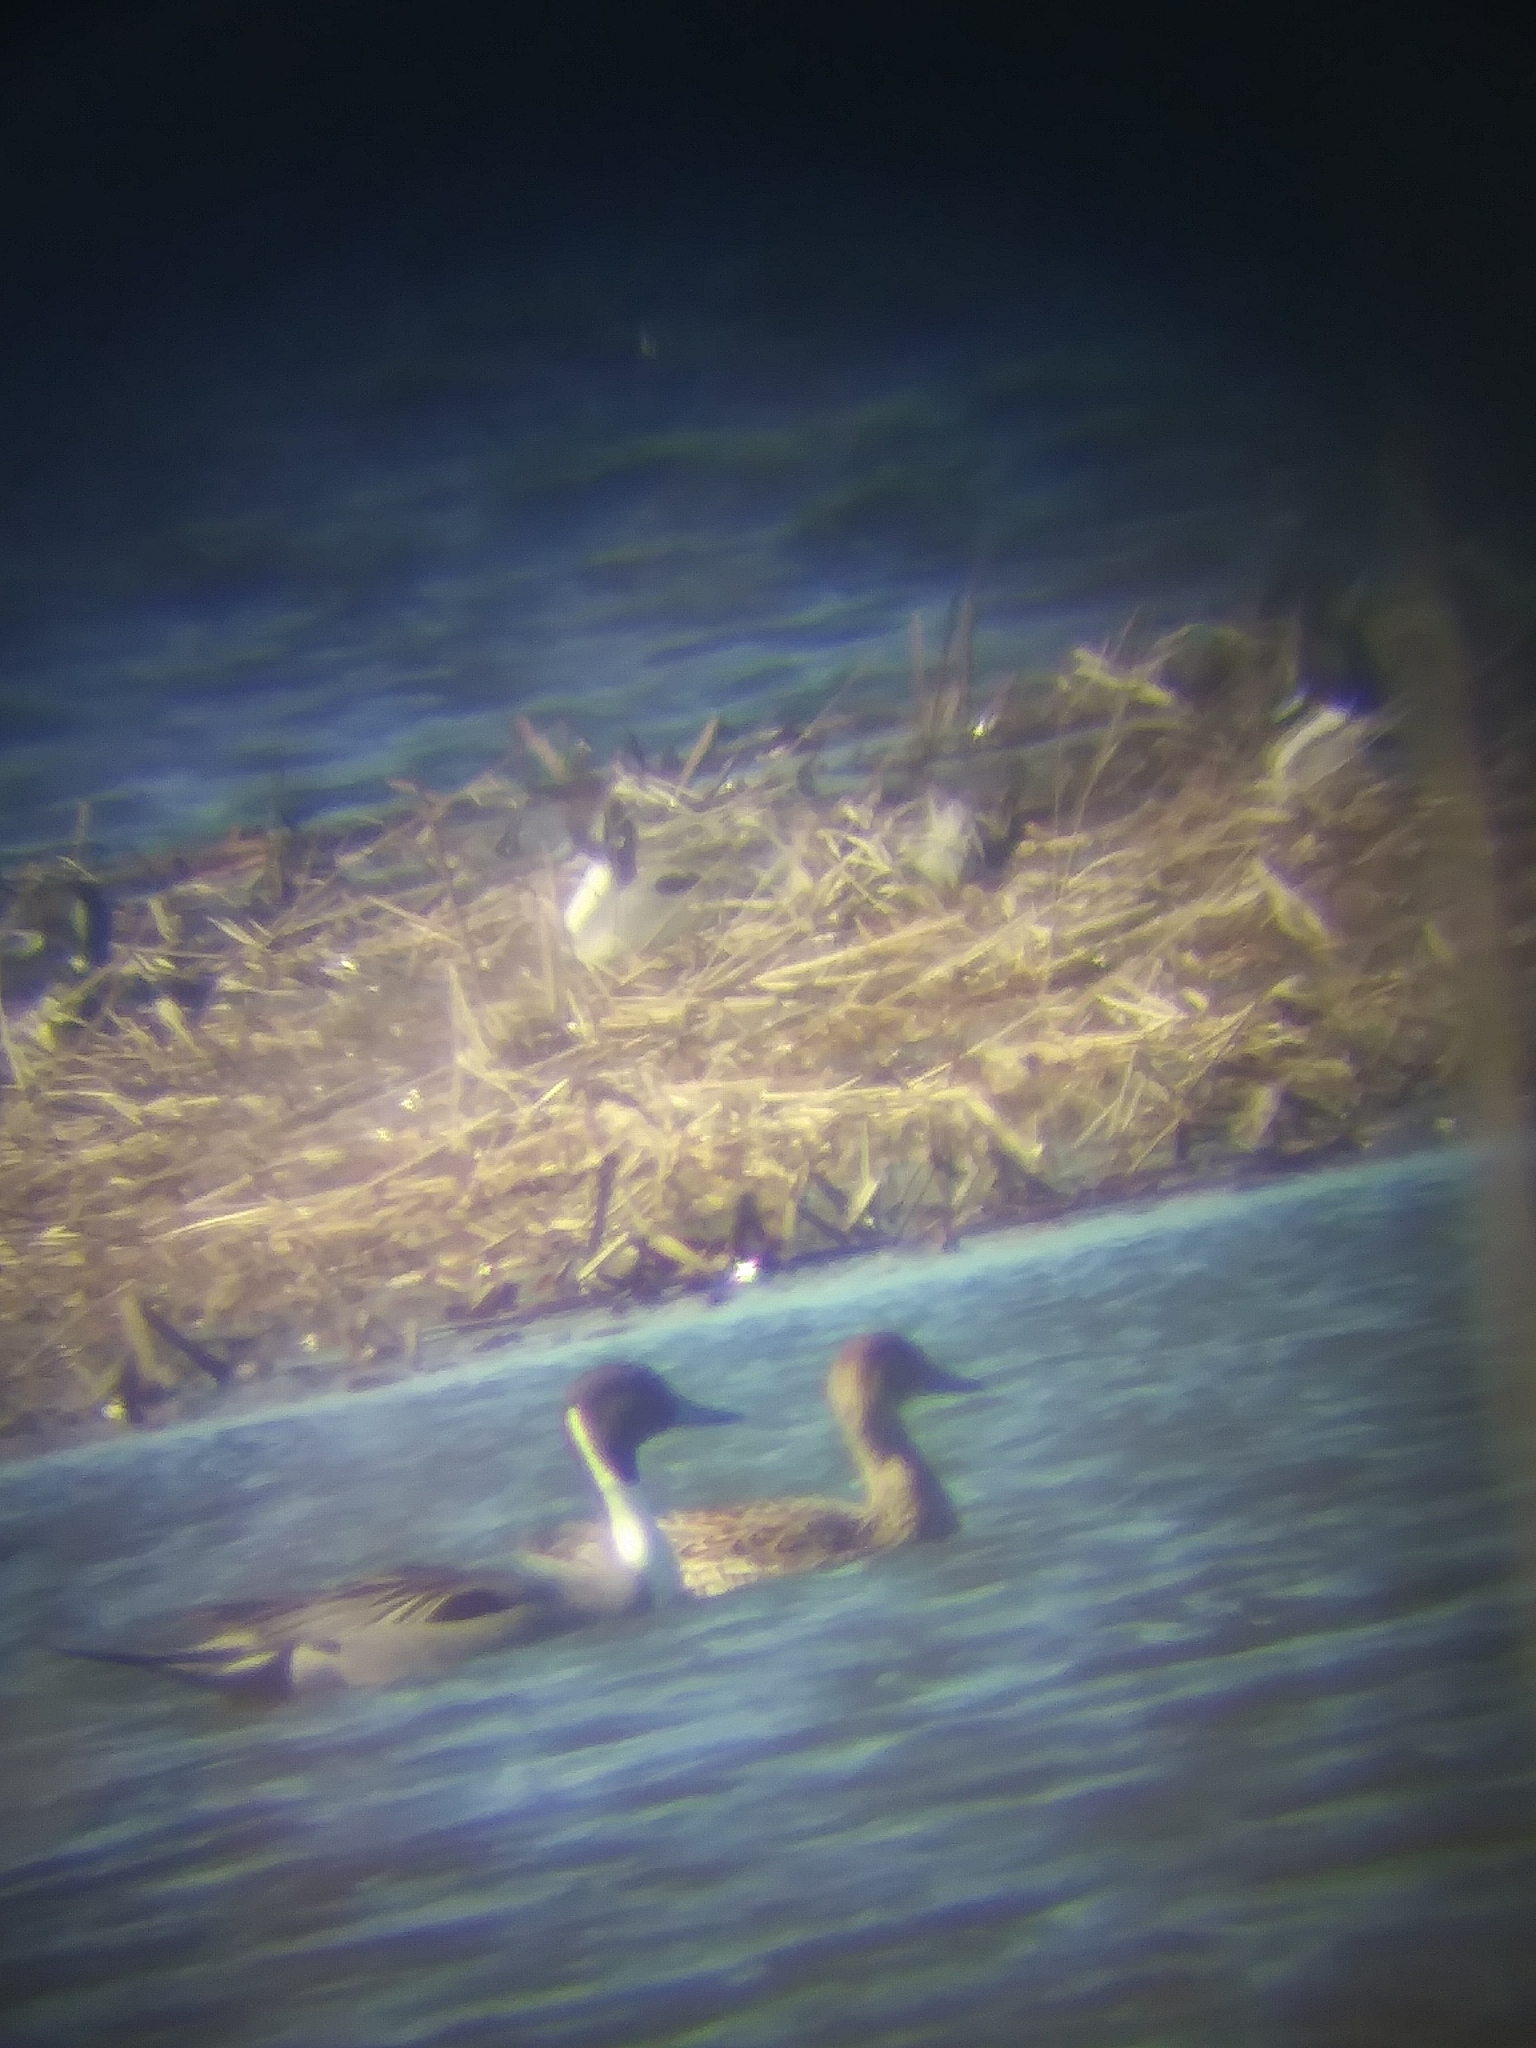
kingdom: Animalia
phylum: Chordata
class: Aves
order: Anseriformes
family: Anatidae
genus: Anas
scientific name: Anas acuta
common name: Northern pintail
